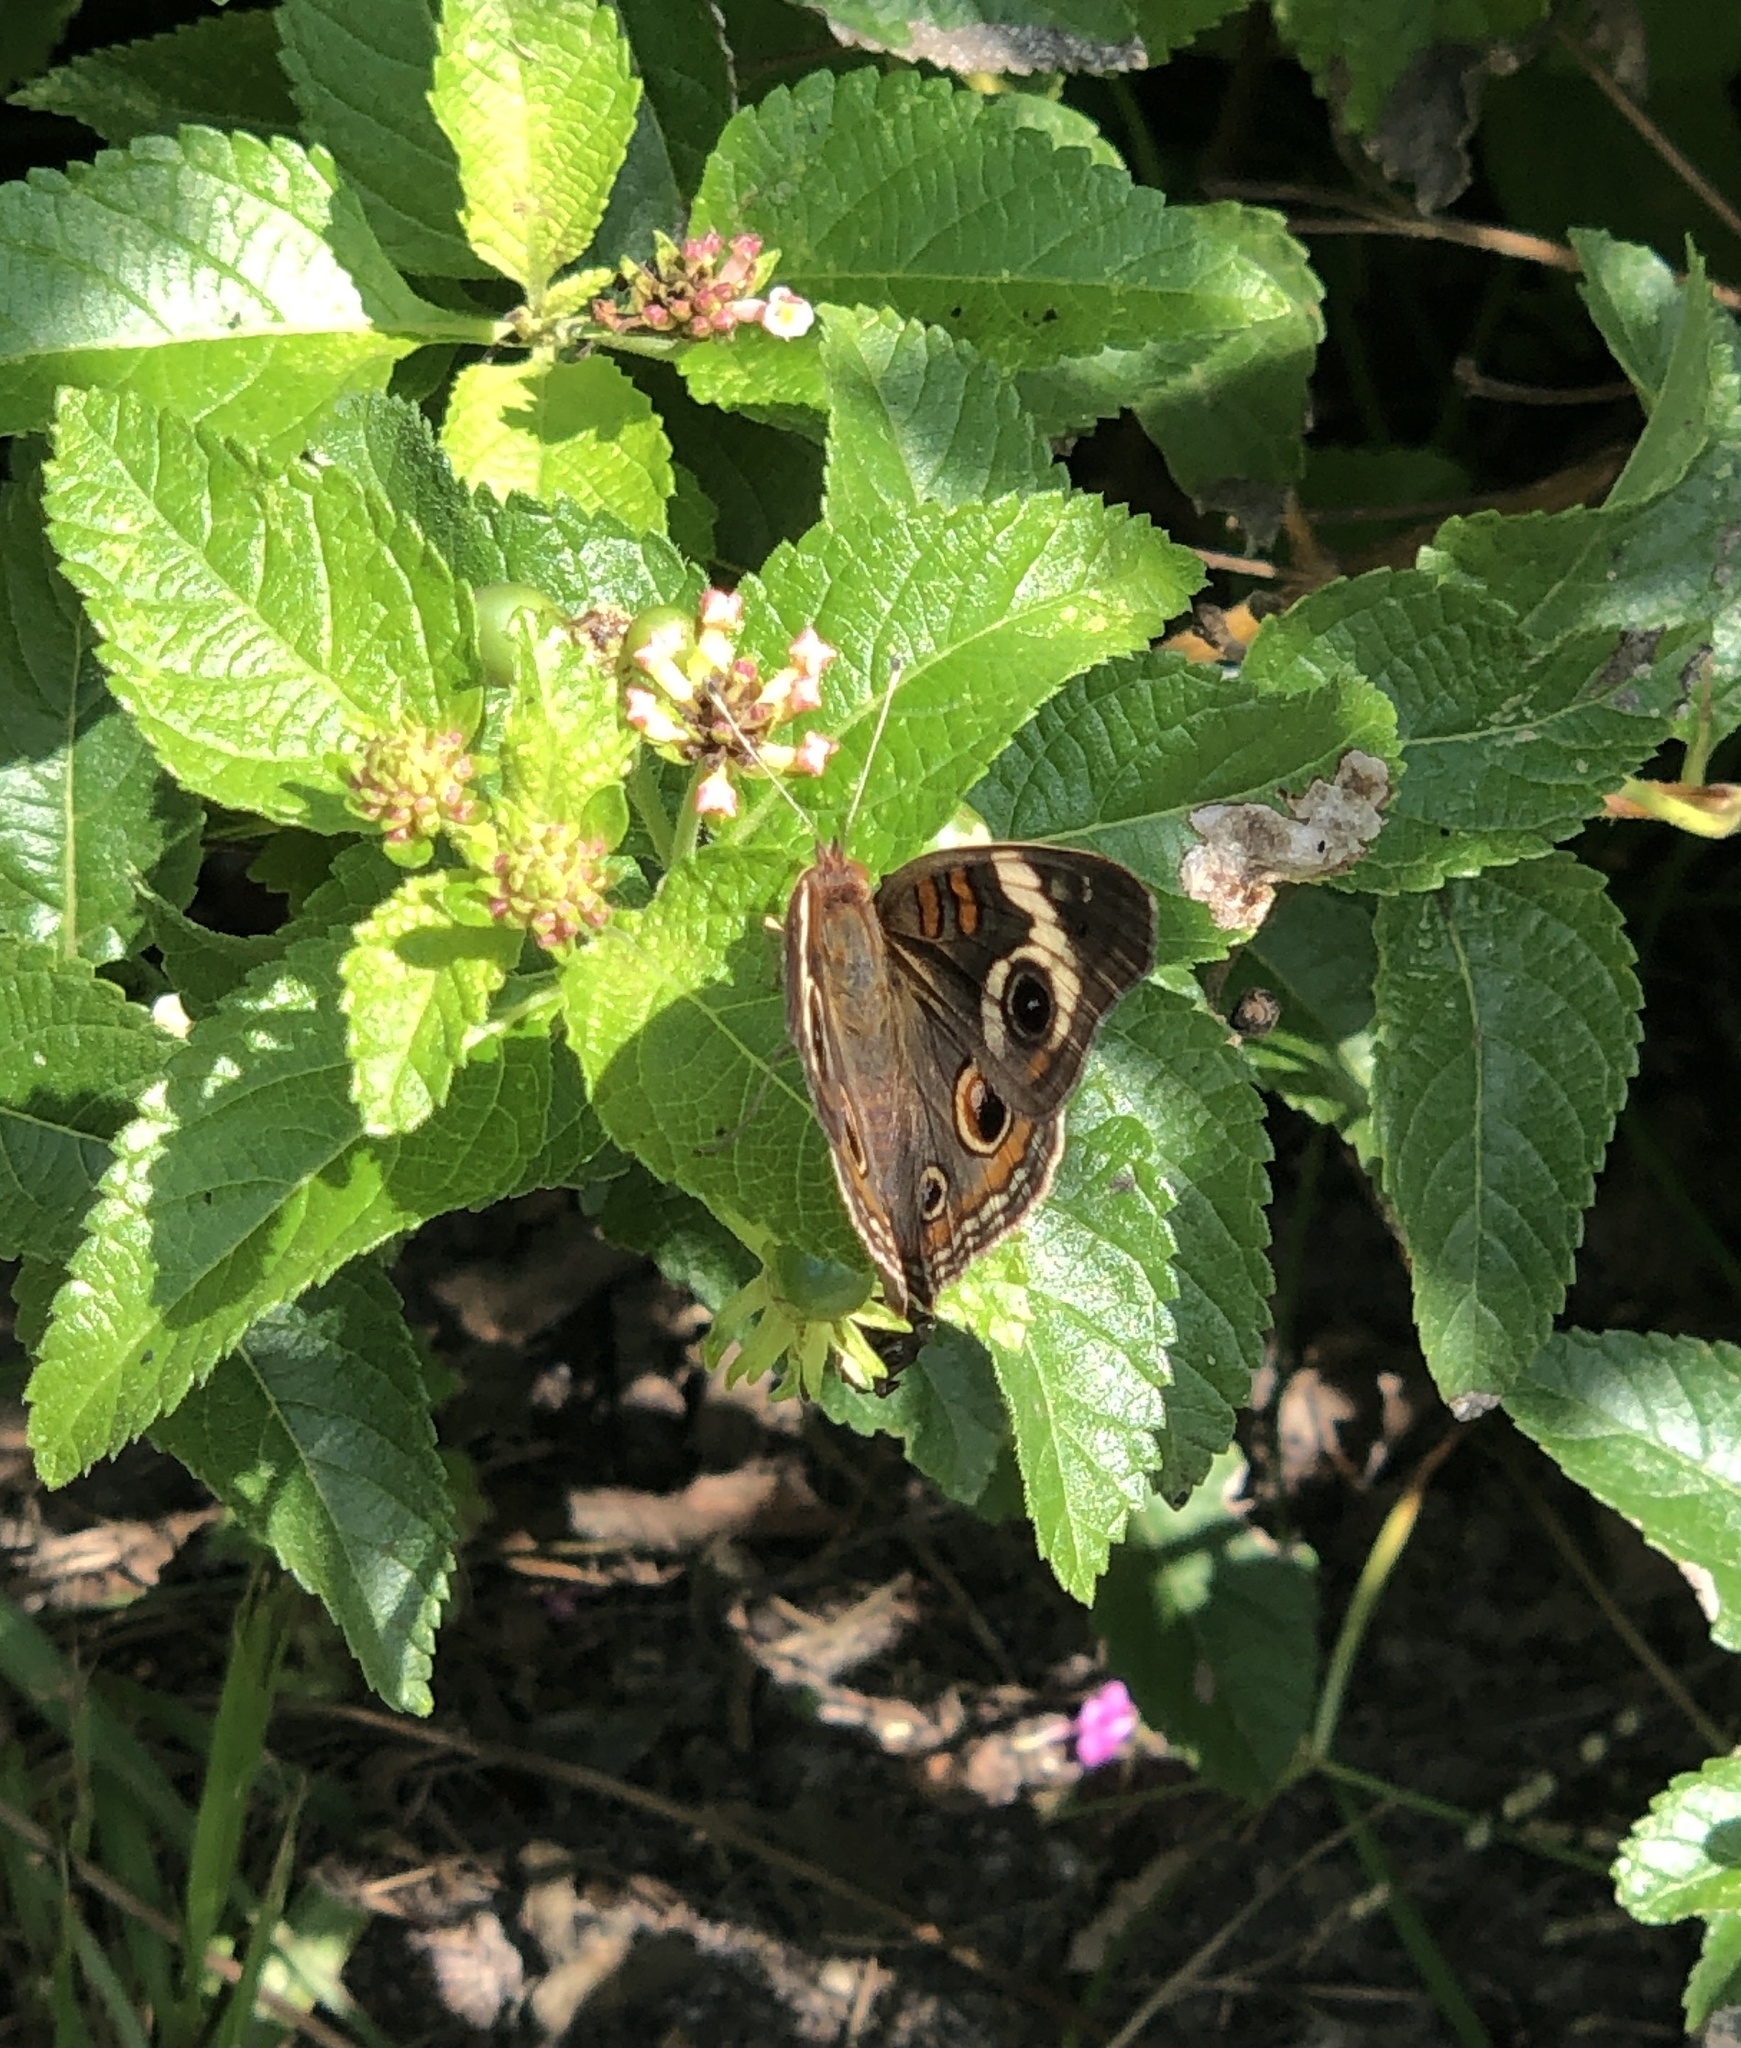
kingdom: Animalia
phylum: Arthropoda
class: Insecta
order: Lepidoptera
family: Nymphalidae
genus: Junonia
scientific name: Junonia coenia
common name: Common buckeye
